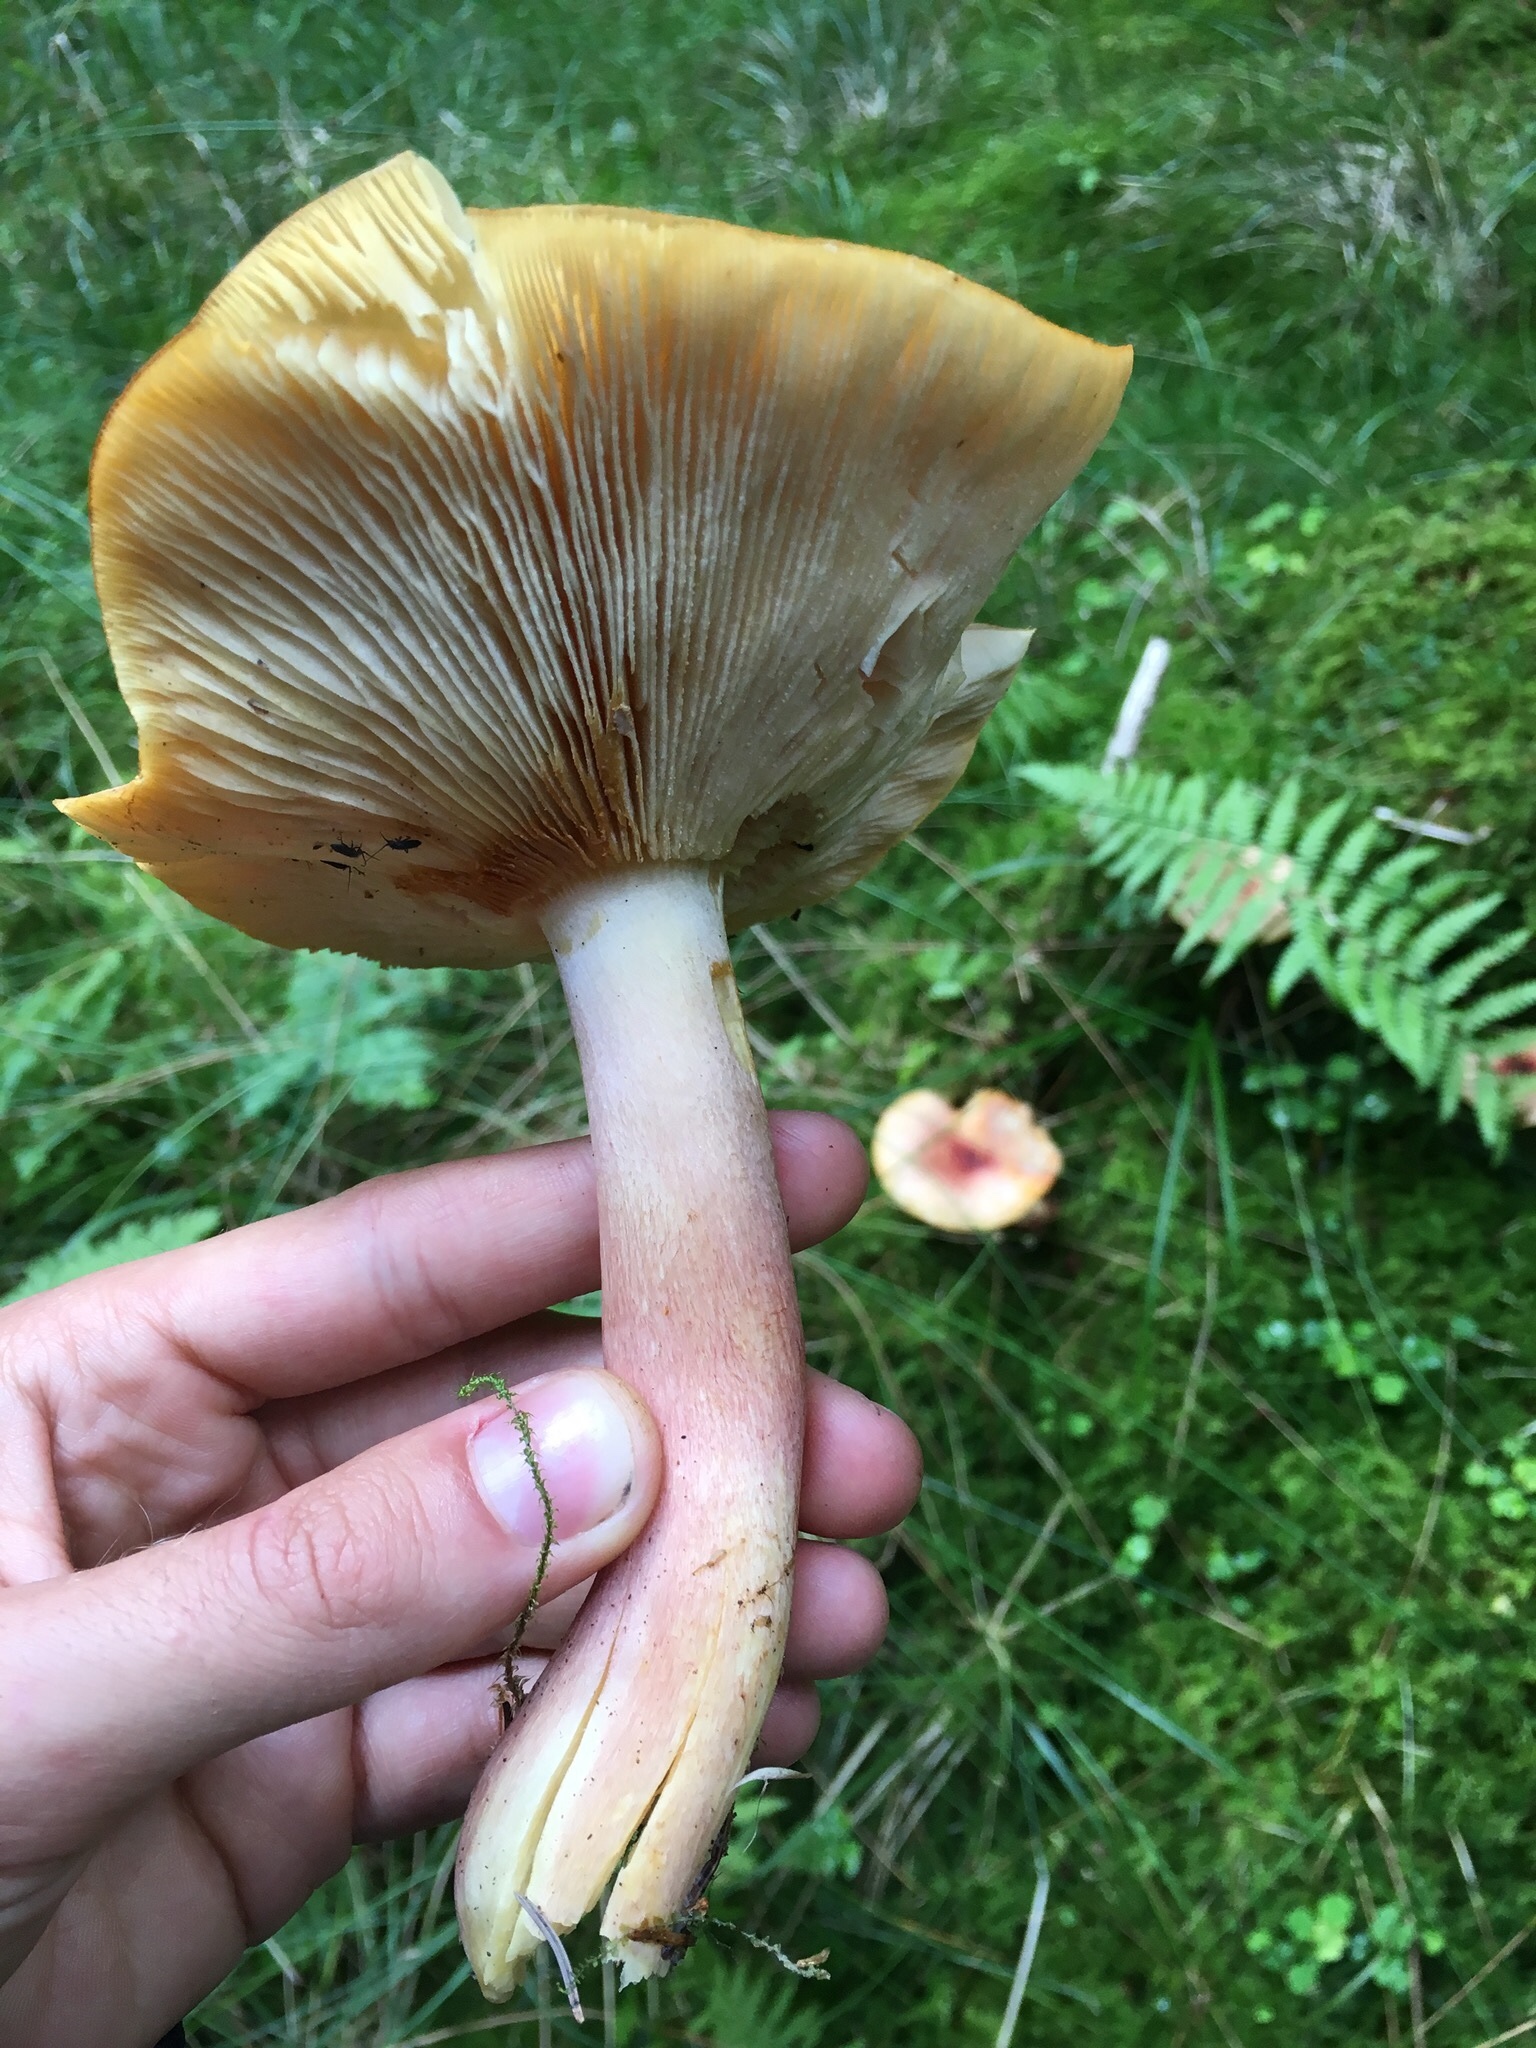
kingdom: Fungi
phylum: Basidiomycota
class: Agaricomycetes
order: Agaricales
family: Tricholomataceae
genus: Tricholomopsis
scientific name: Tricholomopsis rutilans
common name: Plums and custard
